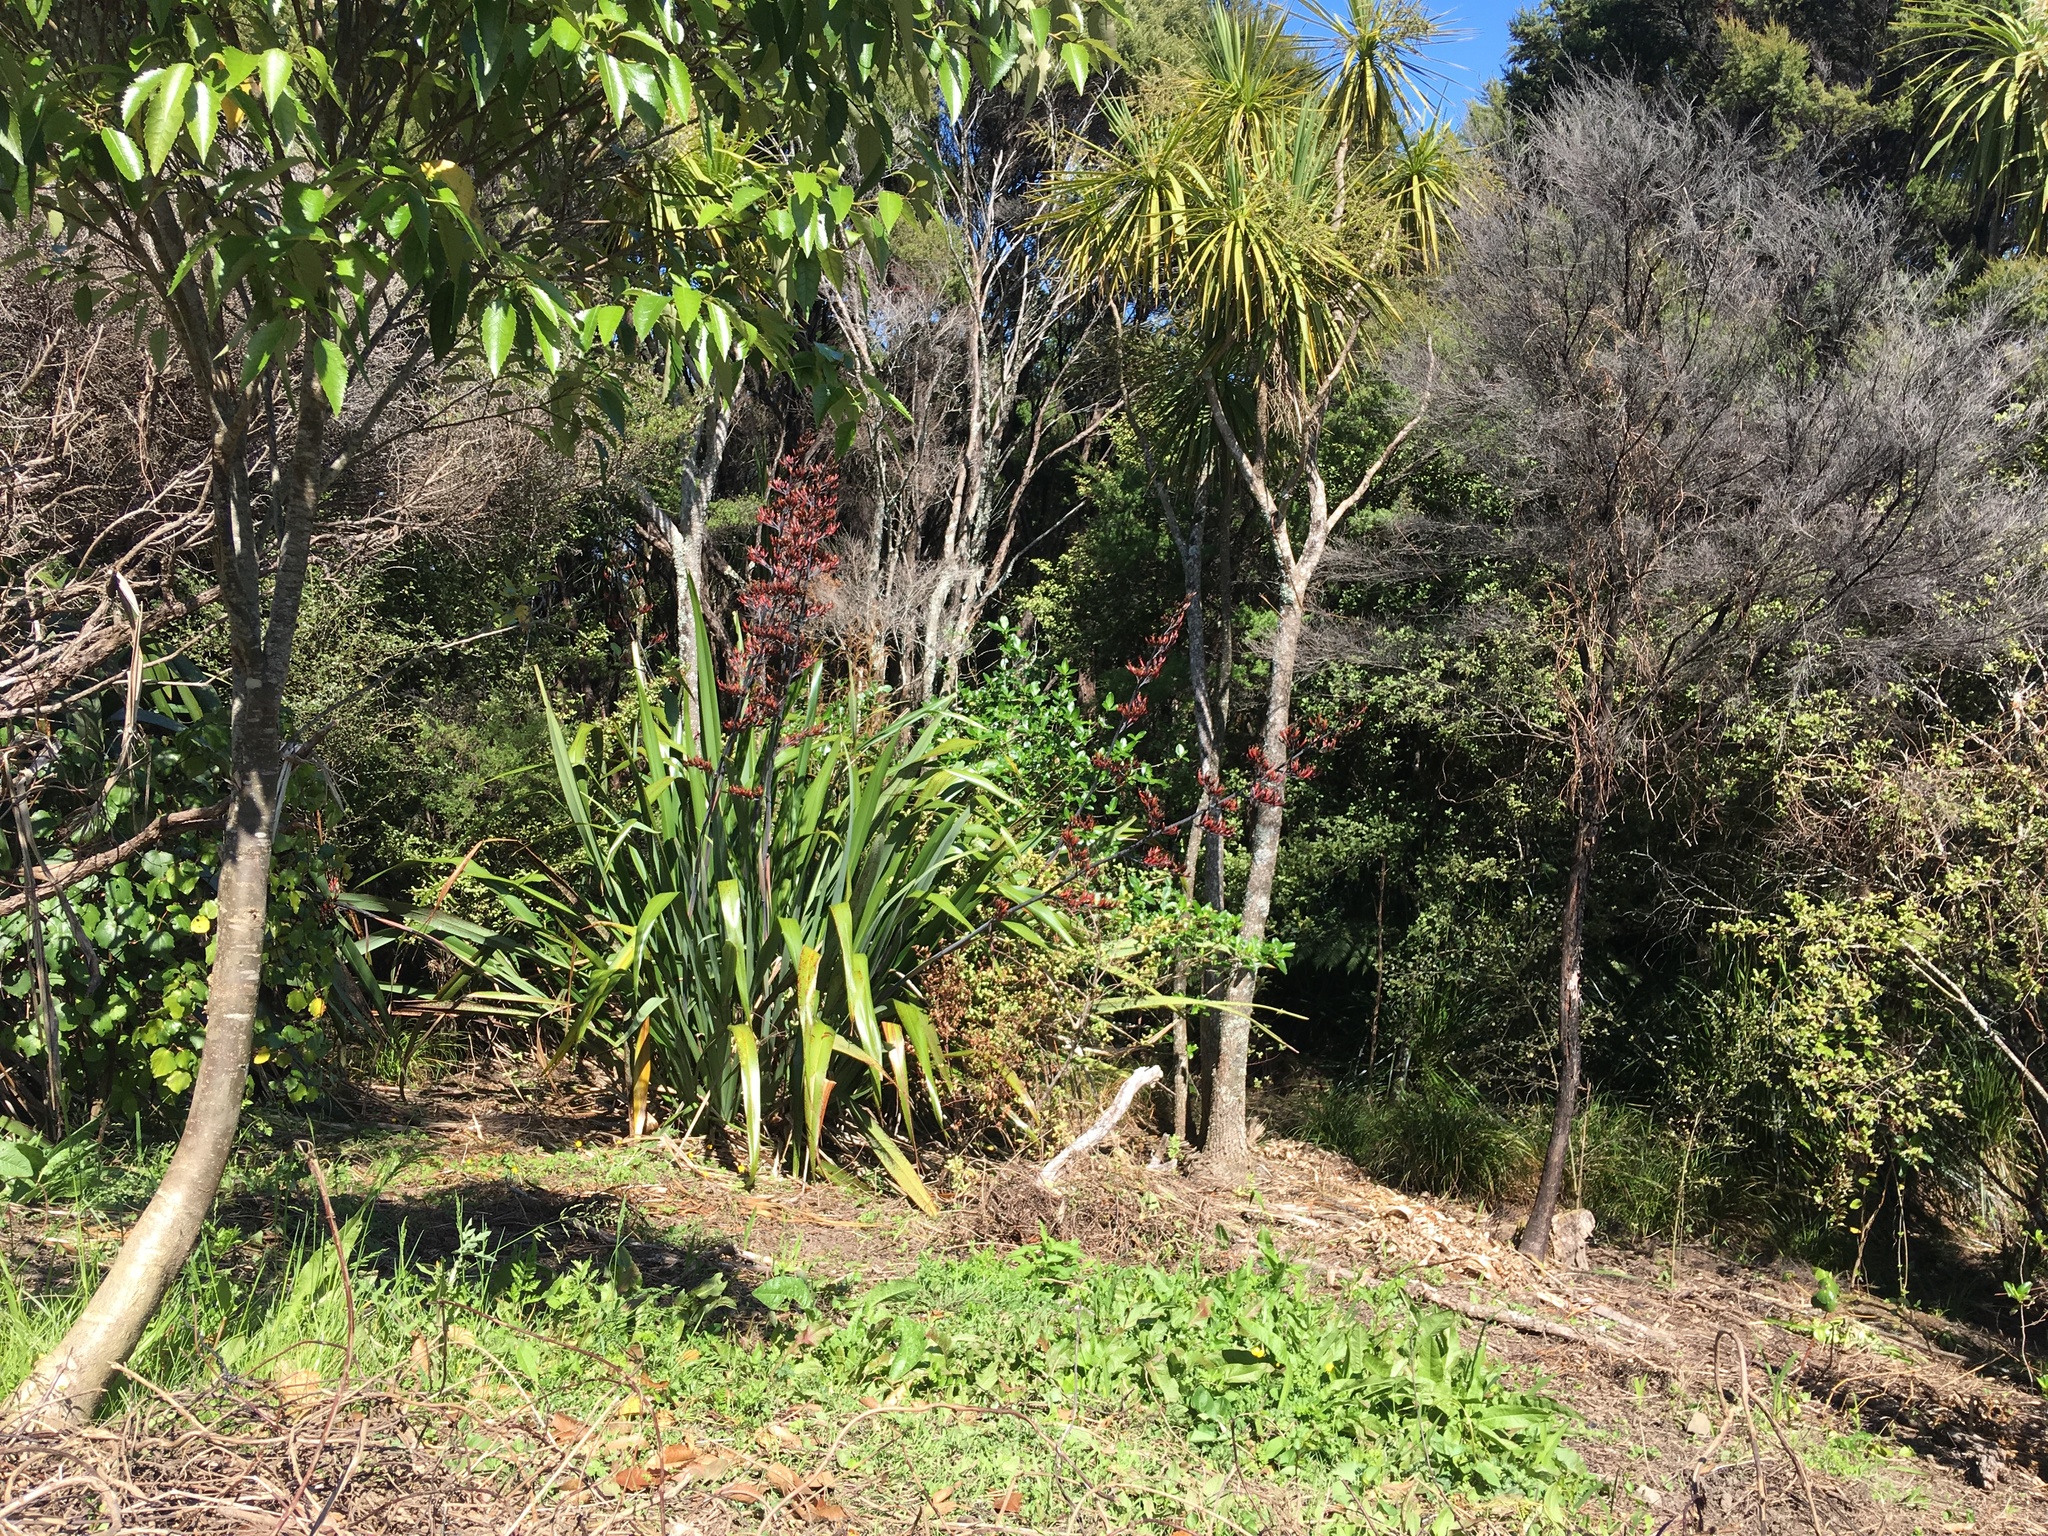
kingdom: Plantae
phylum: Tracheophyta
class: Magnoliopsida
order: Caryophyllales
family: Polygonaceae
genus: Rumex
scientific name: Rumex obtusifolius
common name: Bitter dock
